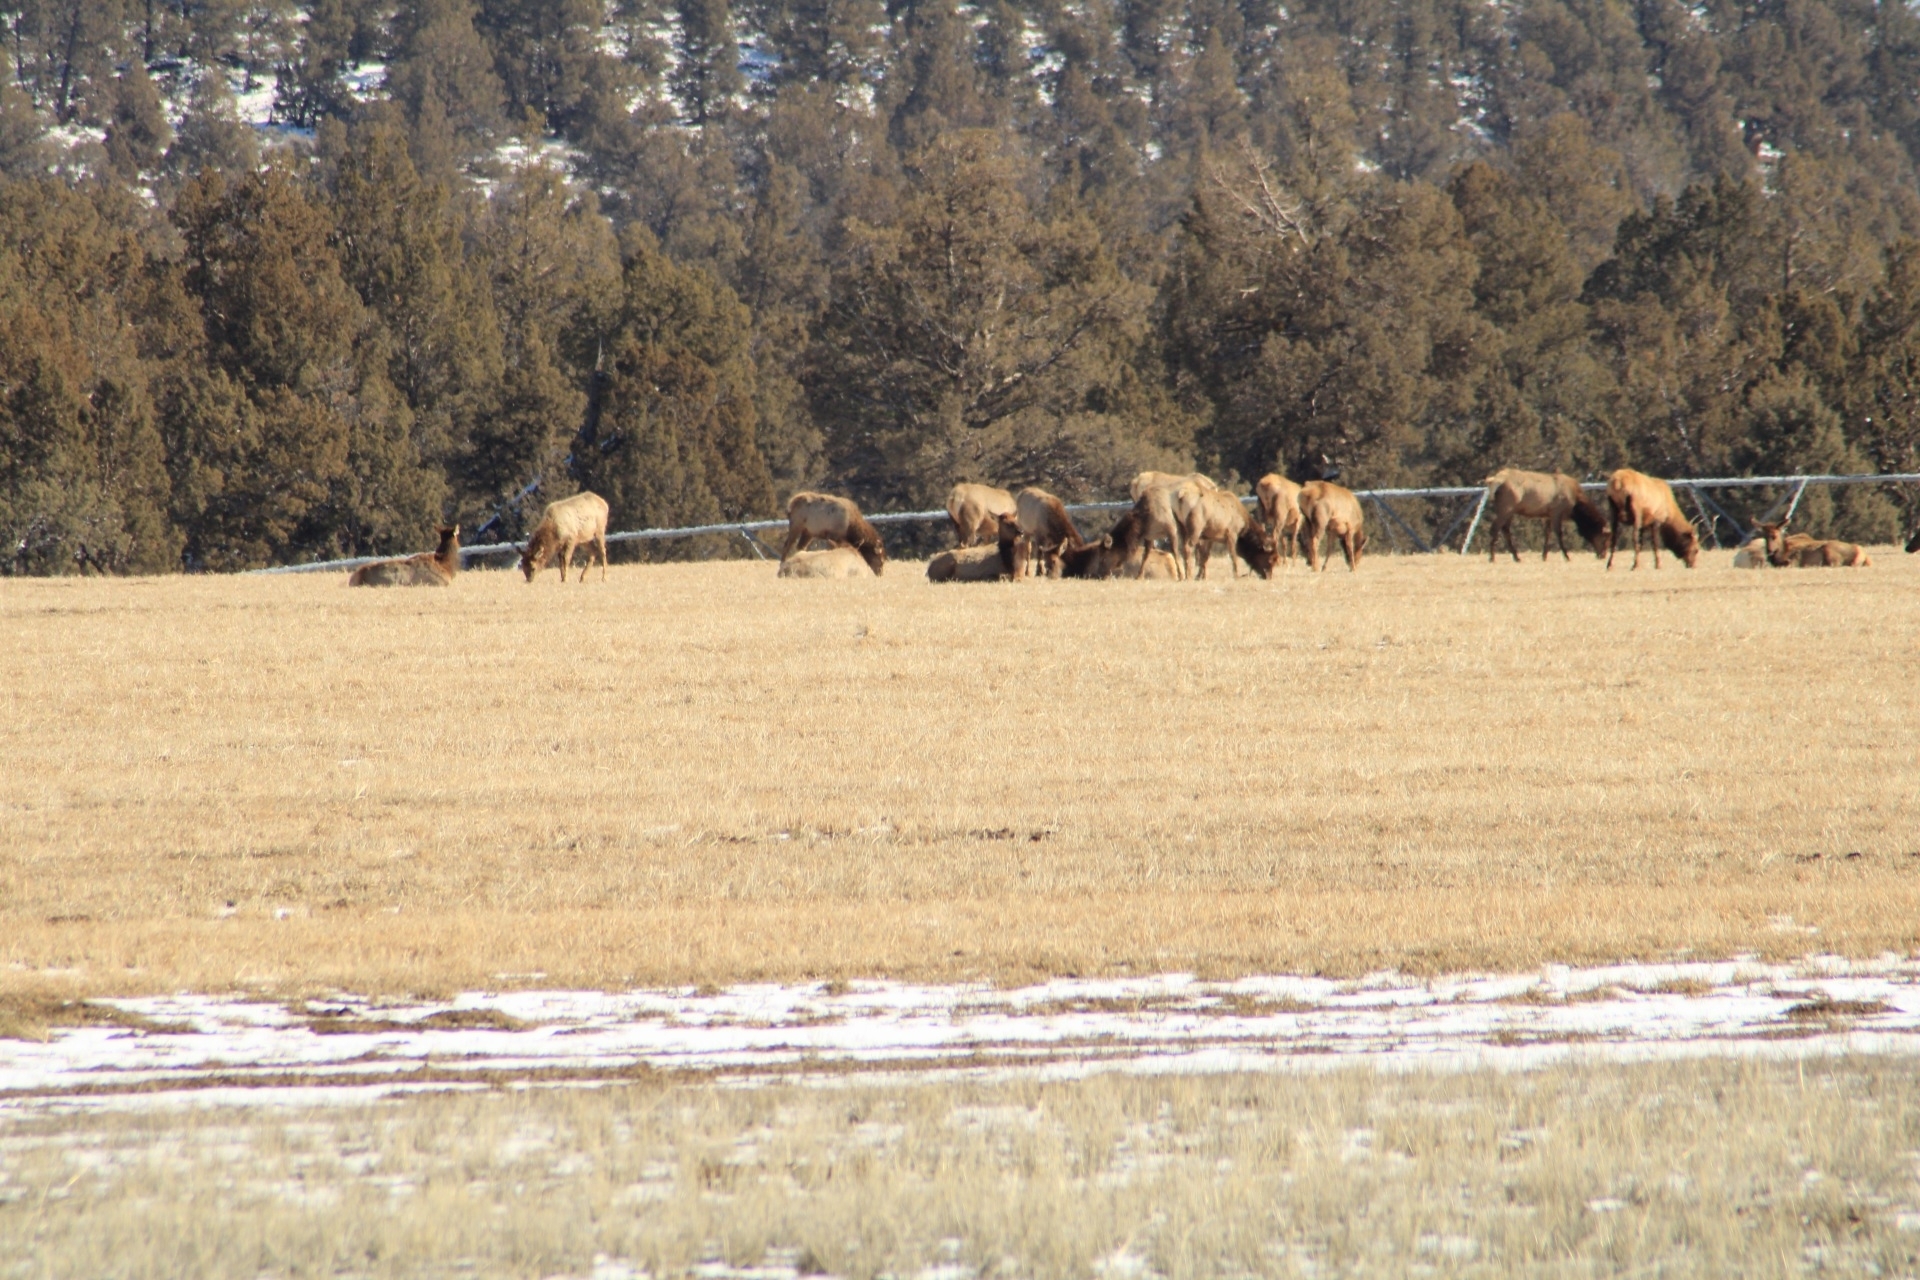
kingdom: Animalia
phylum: Chordata
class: Mammalia
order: Artiodactyla
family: Cervidae
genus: Cervus
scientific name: Cervus elaphus
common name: Red deer
